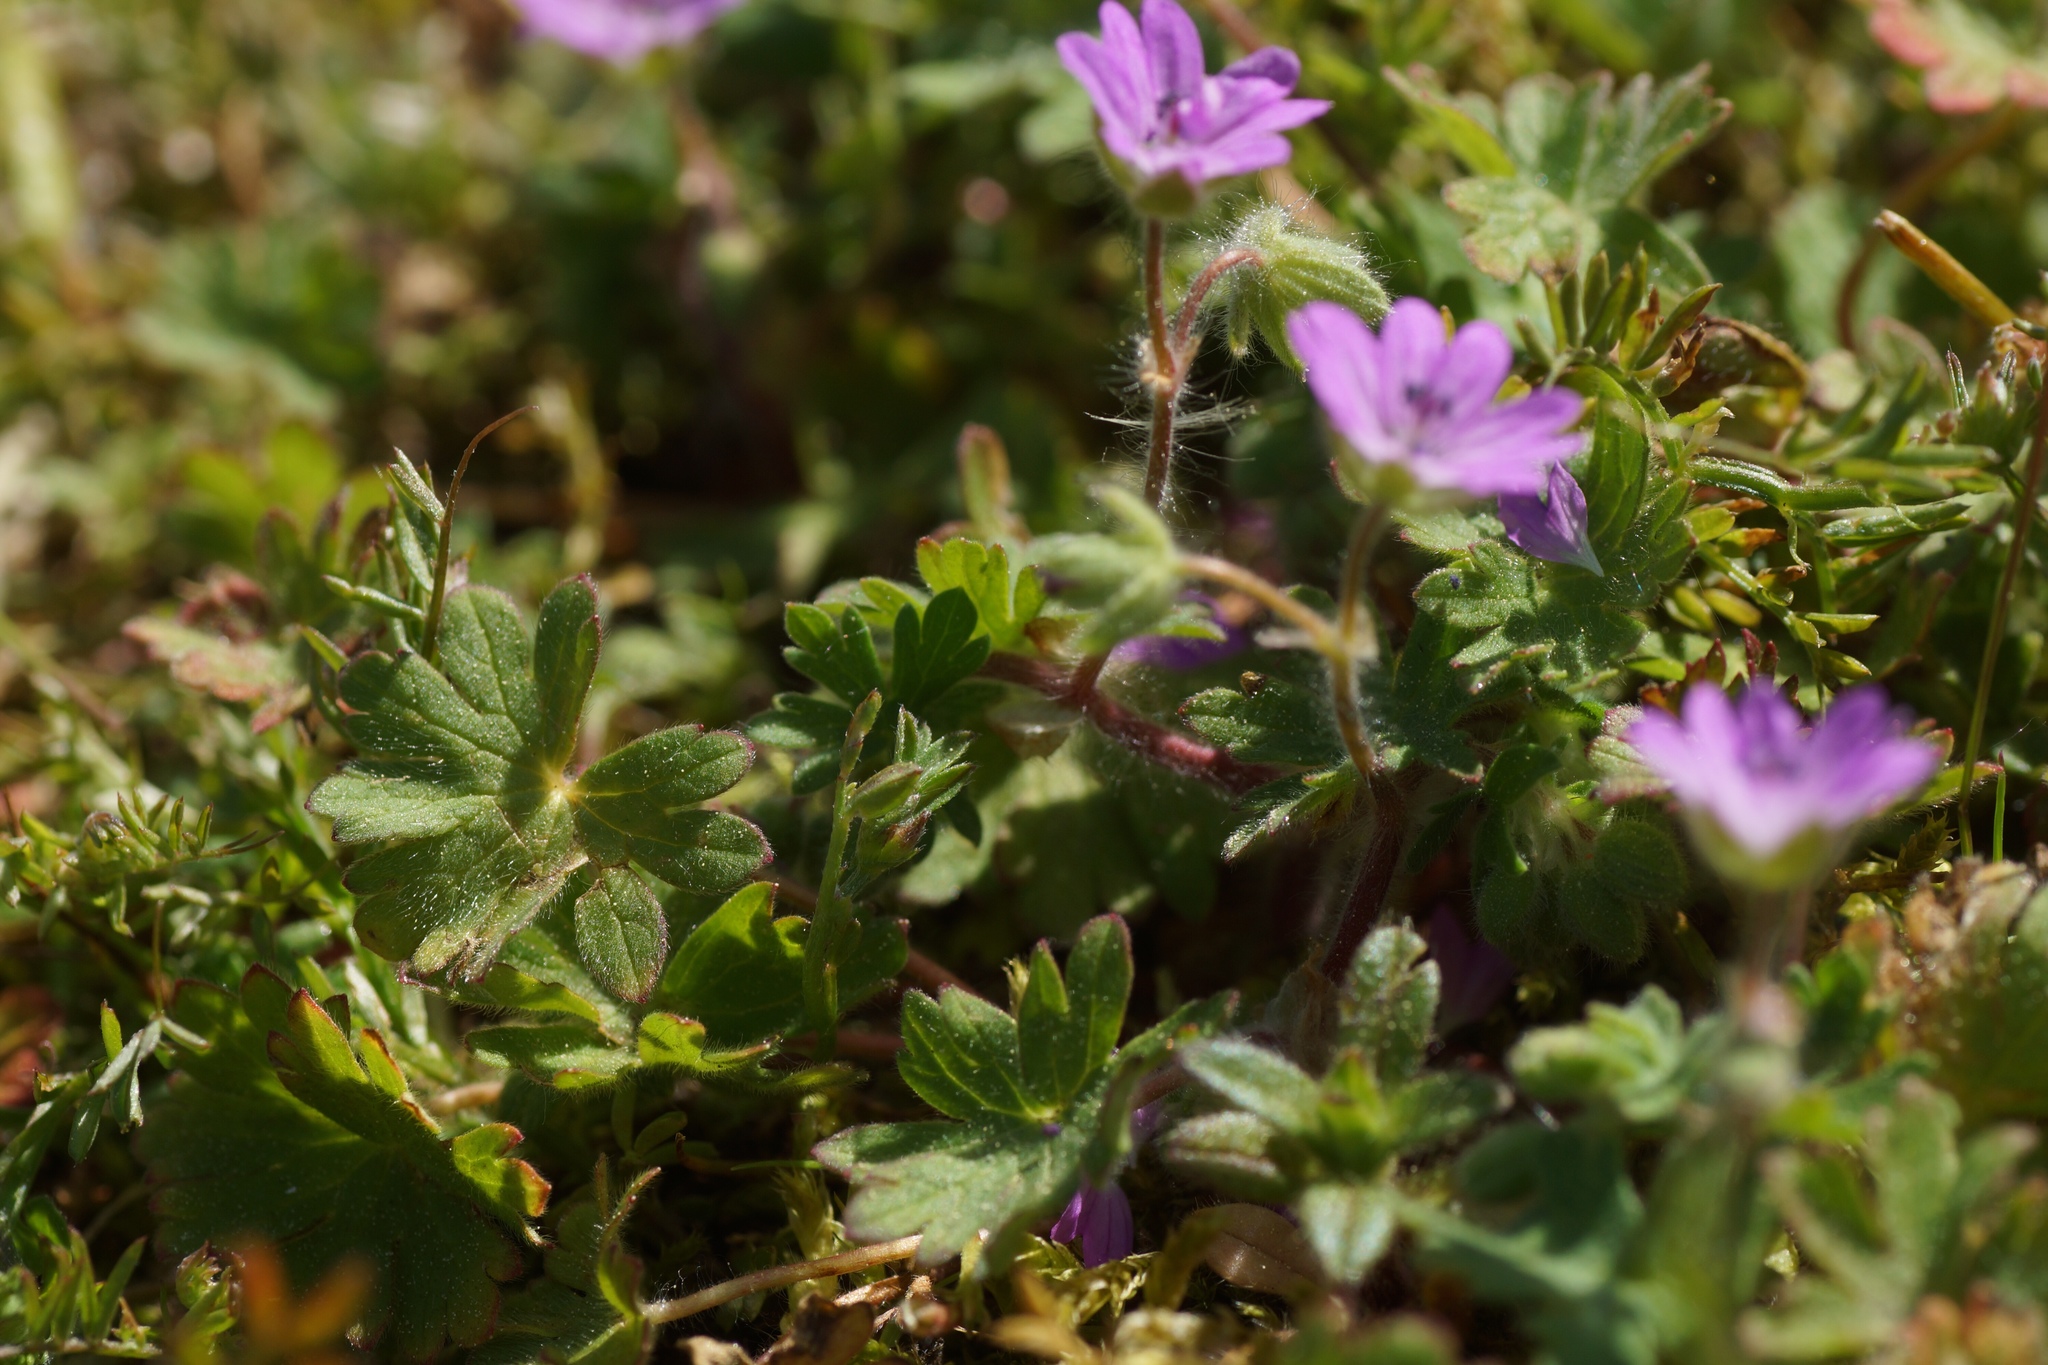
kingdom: Plantae
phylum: Tracheophyta
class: Magnoliopsida
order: Geraniales
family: Geraniaceae
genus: Geranium
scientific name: Geranium molle
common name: Dove's-foot crane's-bill
